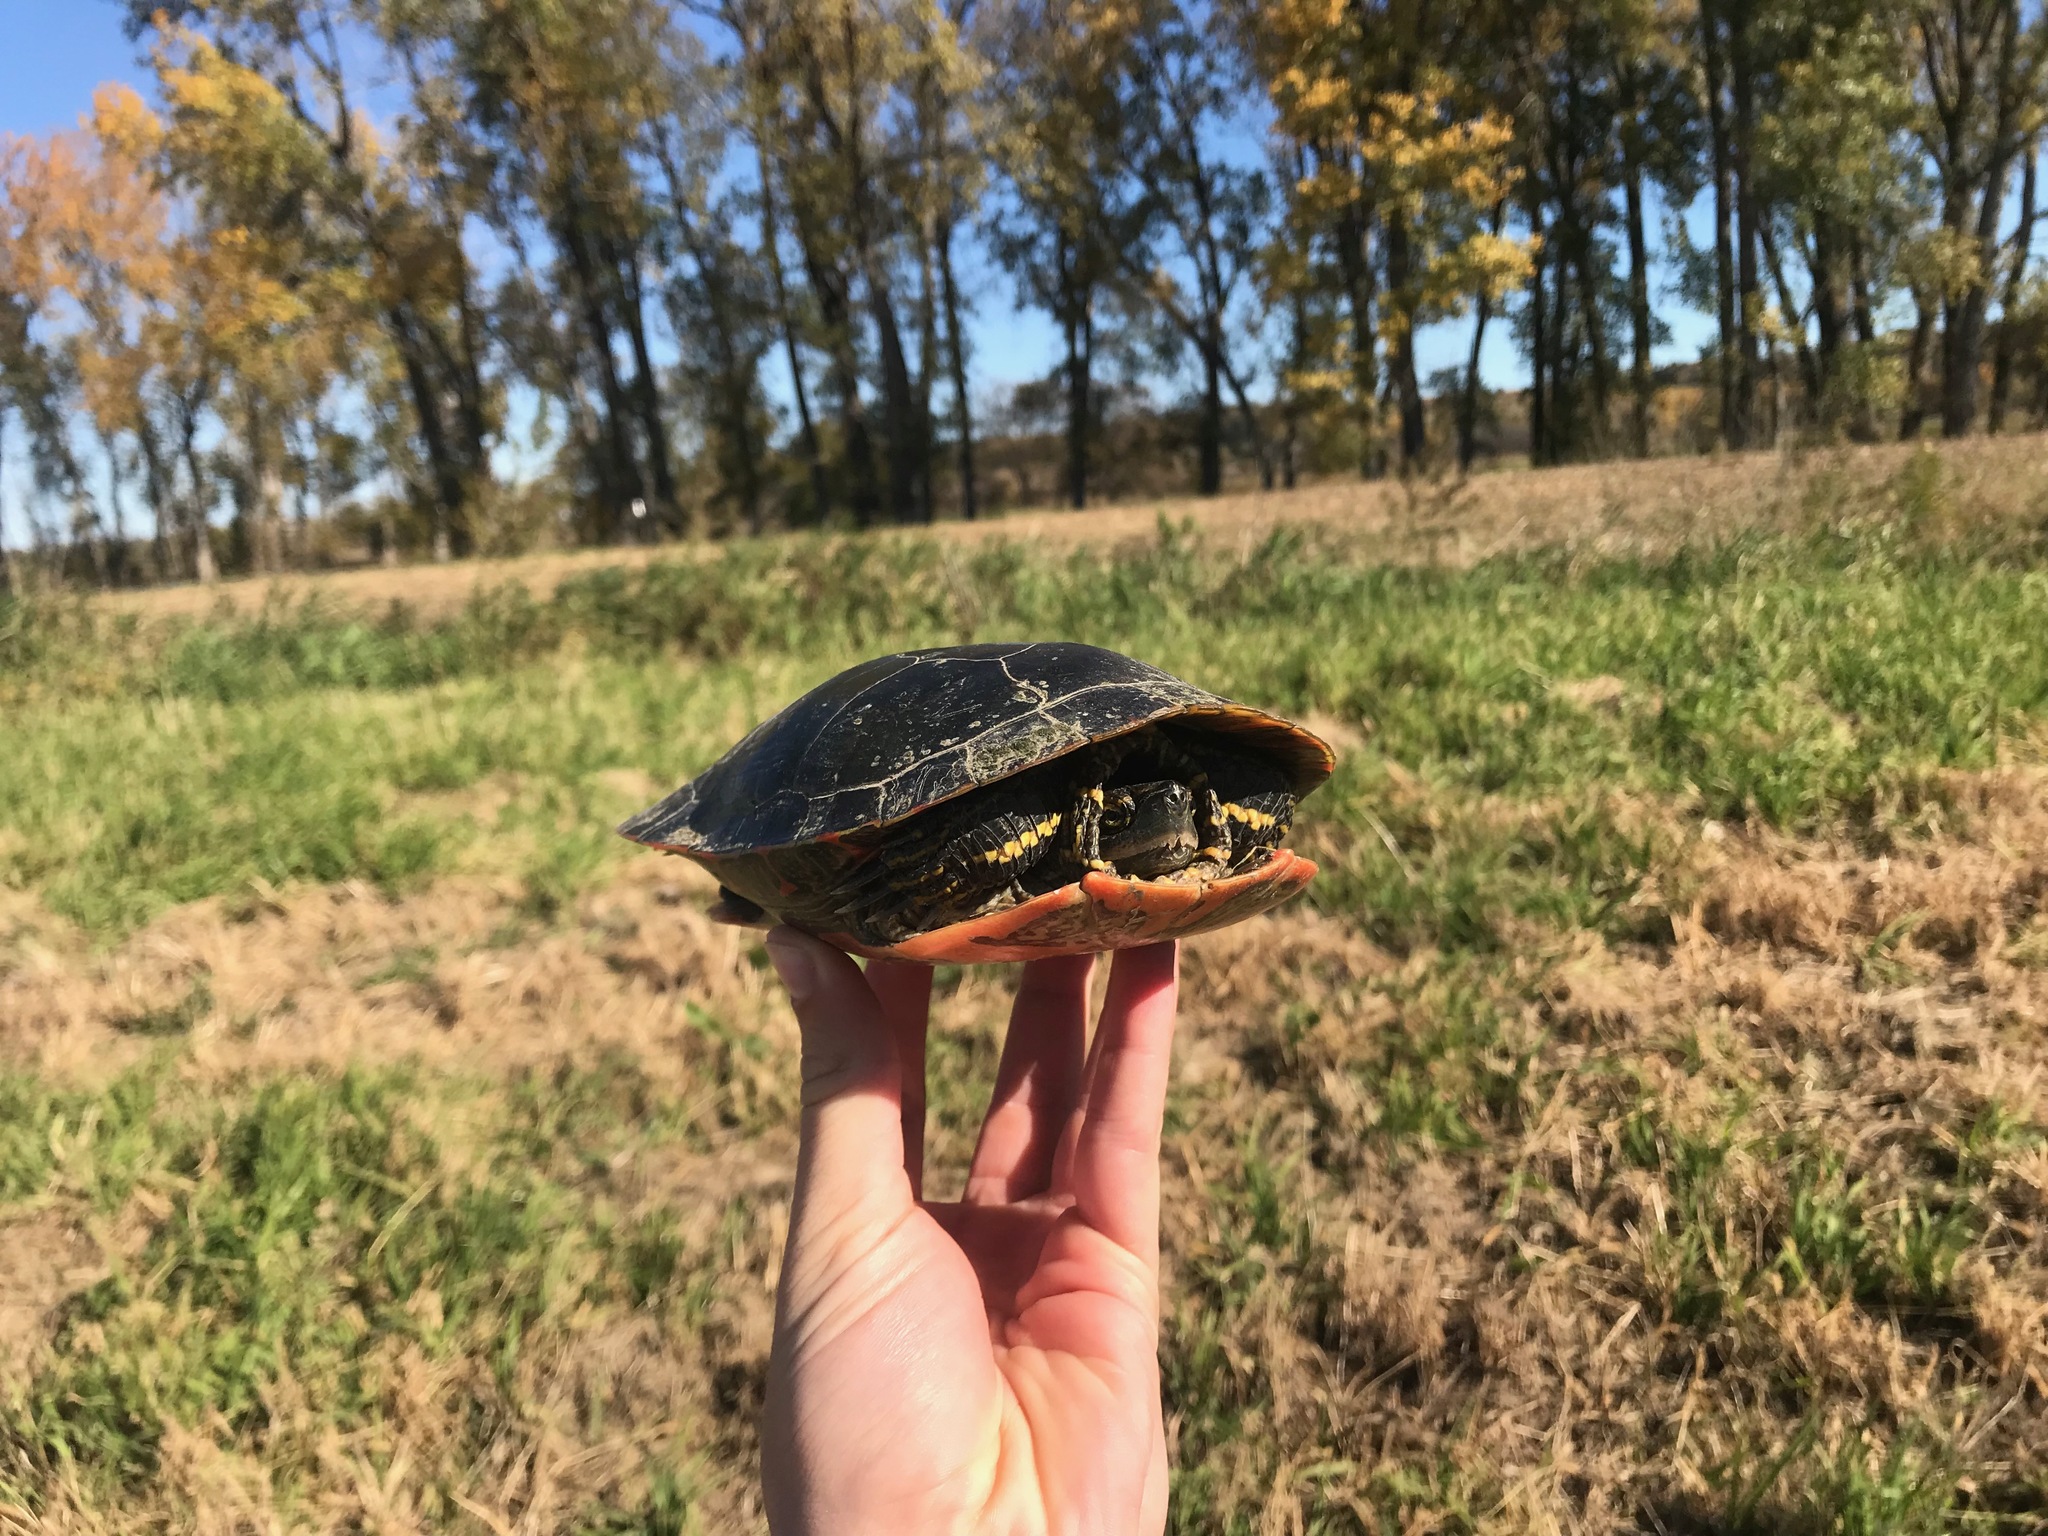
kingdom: Animalia
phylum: Chordata
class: Testudines
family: Emydidae
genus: Chrysemys
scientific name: Chrysemys picta
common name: Painted turtle
